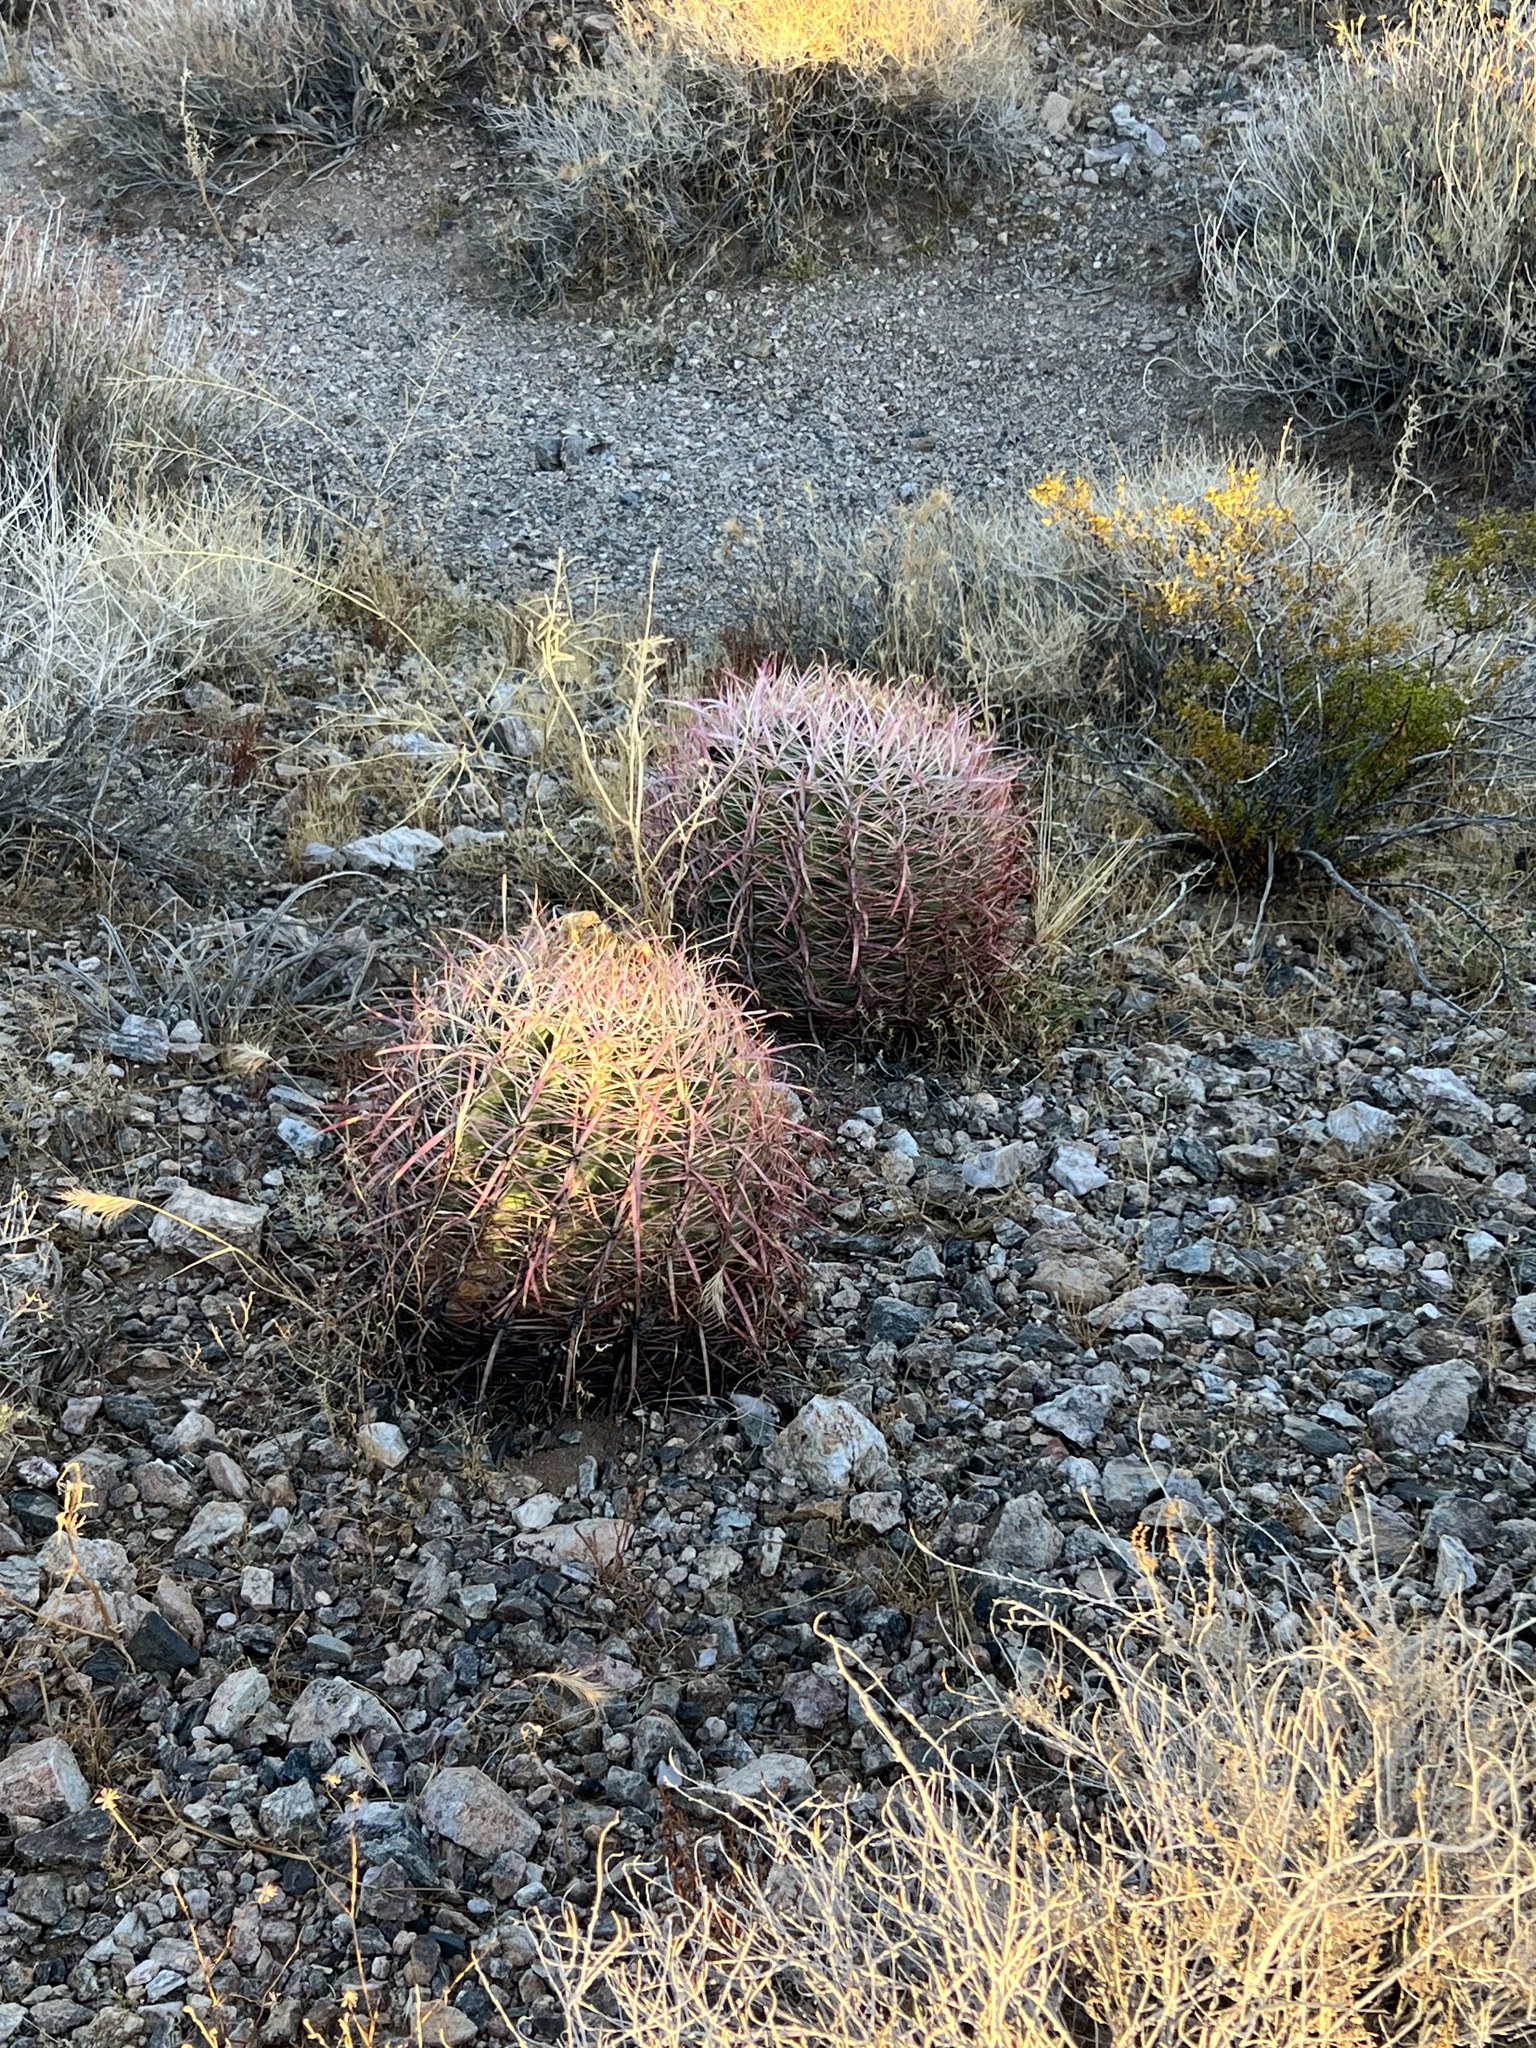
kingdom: Plantae
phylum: Tracheophyta
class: Magnoliopsida
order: Caryophyllales
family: Cactaceae
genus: Ferocactus
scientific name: Ferocactus cylindraceus
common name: California barrel cactus
